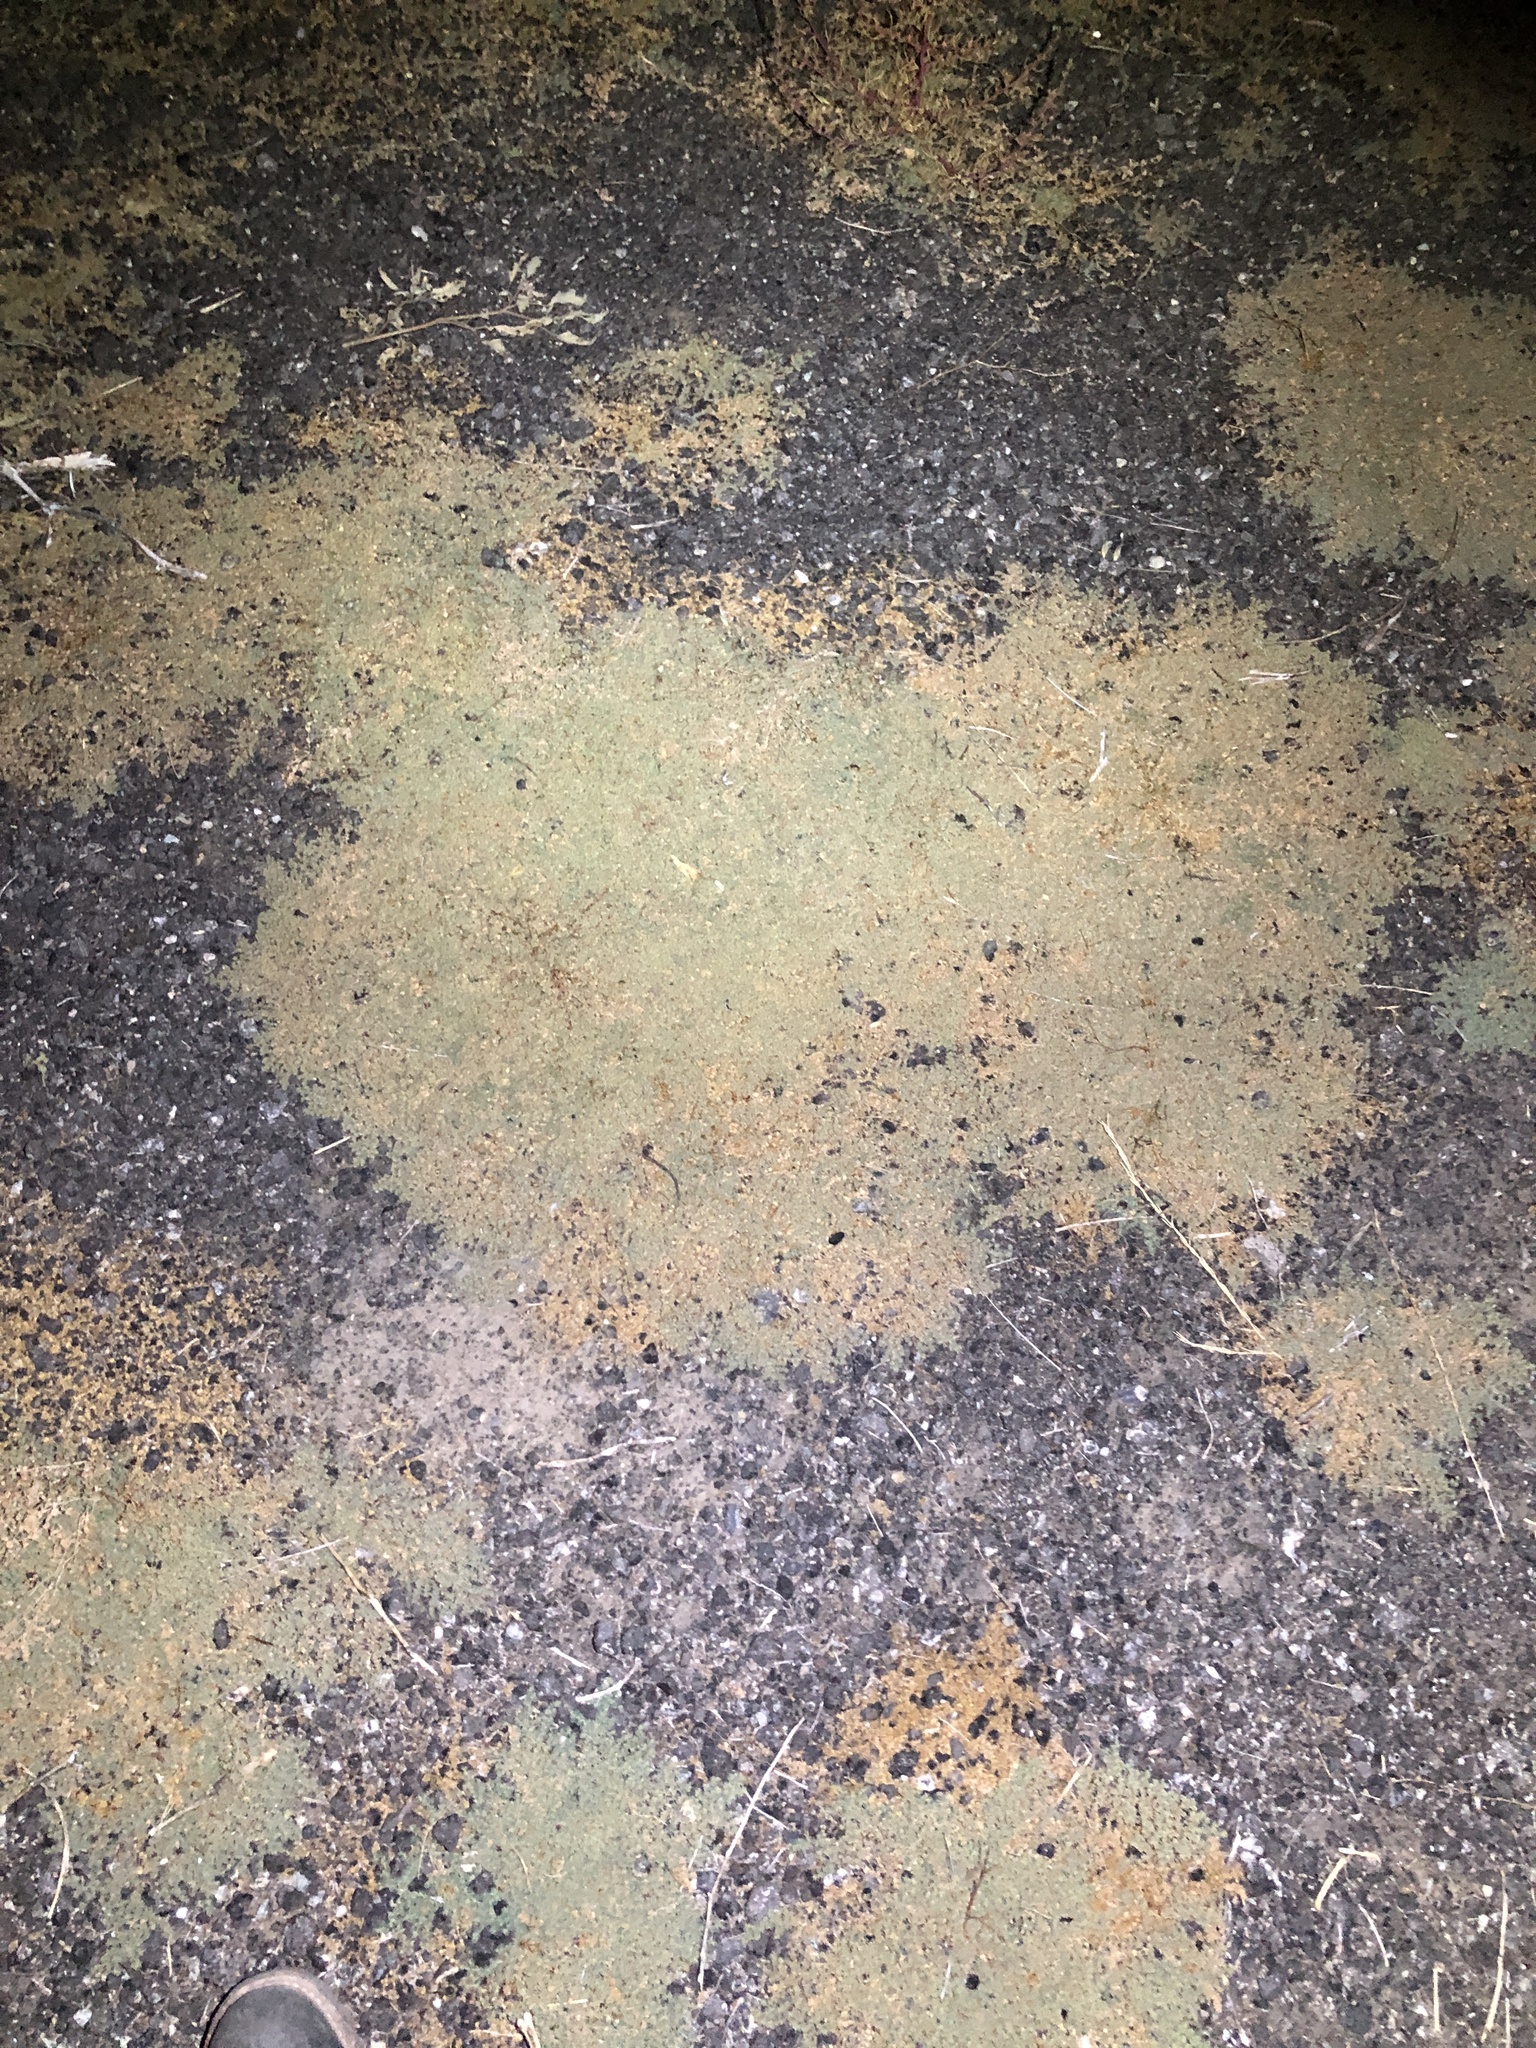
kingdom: Plantae
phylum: Tracheophyta
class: Magnoliopsida
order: Malpighiales
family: Euphorbiaceae
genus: Euphorbia
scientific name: Euphorbia albomarginata
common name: Whitemargin sandmat
